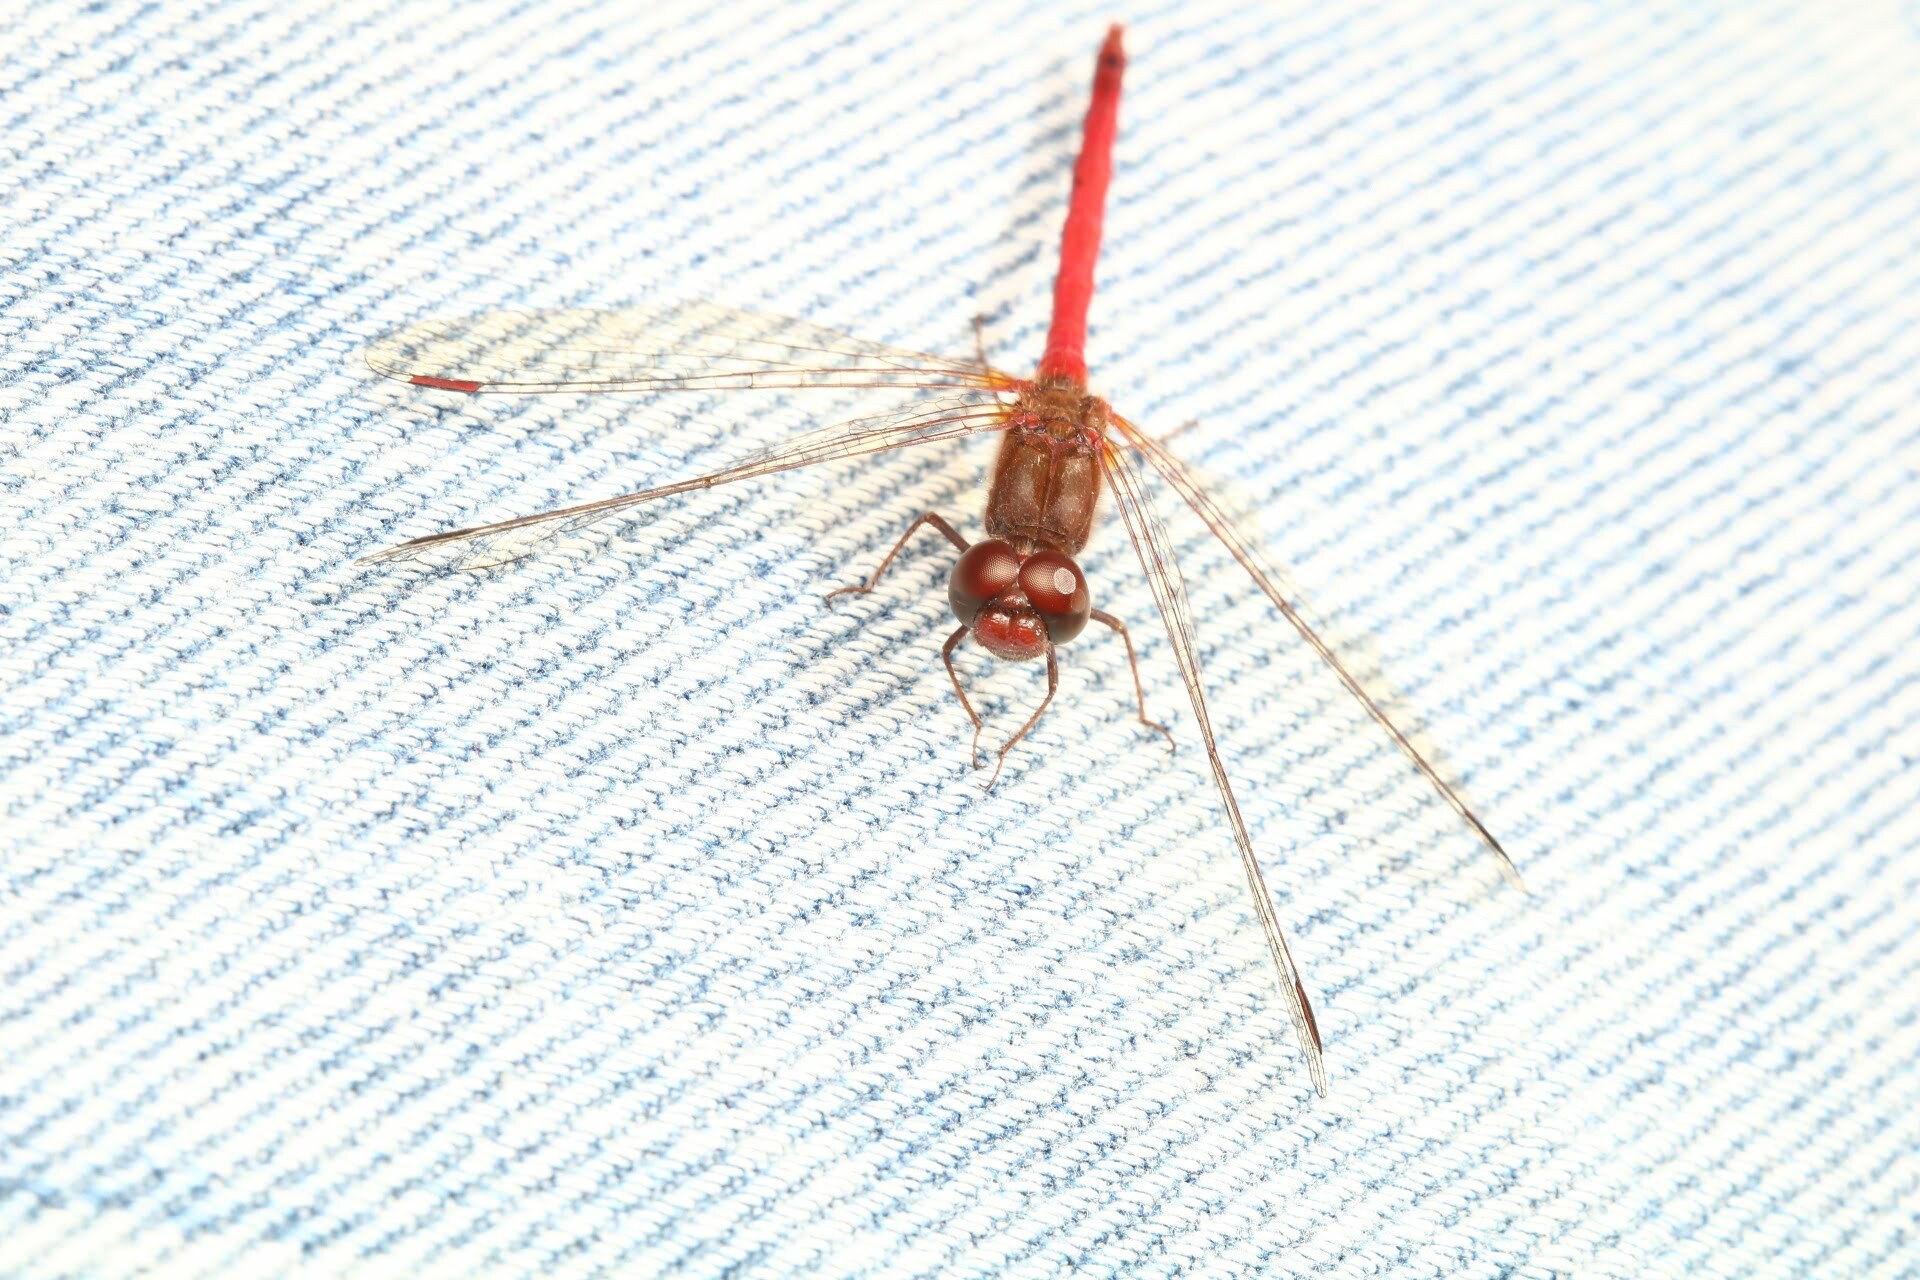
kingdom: Animalia
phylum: Arthropoda
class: Insecta
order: Odonata
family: Libellulidae
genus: Sympetrum
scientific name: Sympetrum vicinum
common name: Autumn meadowhawk
